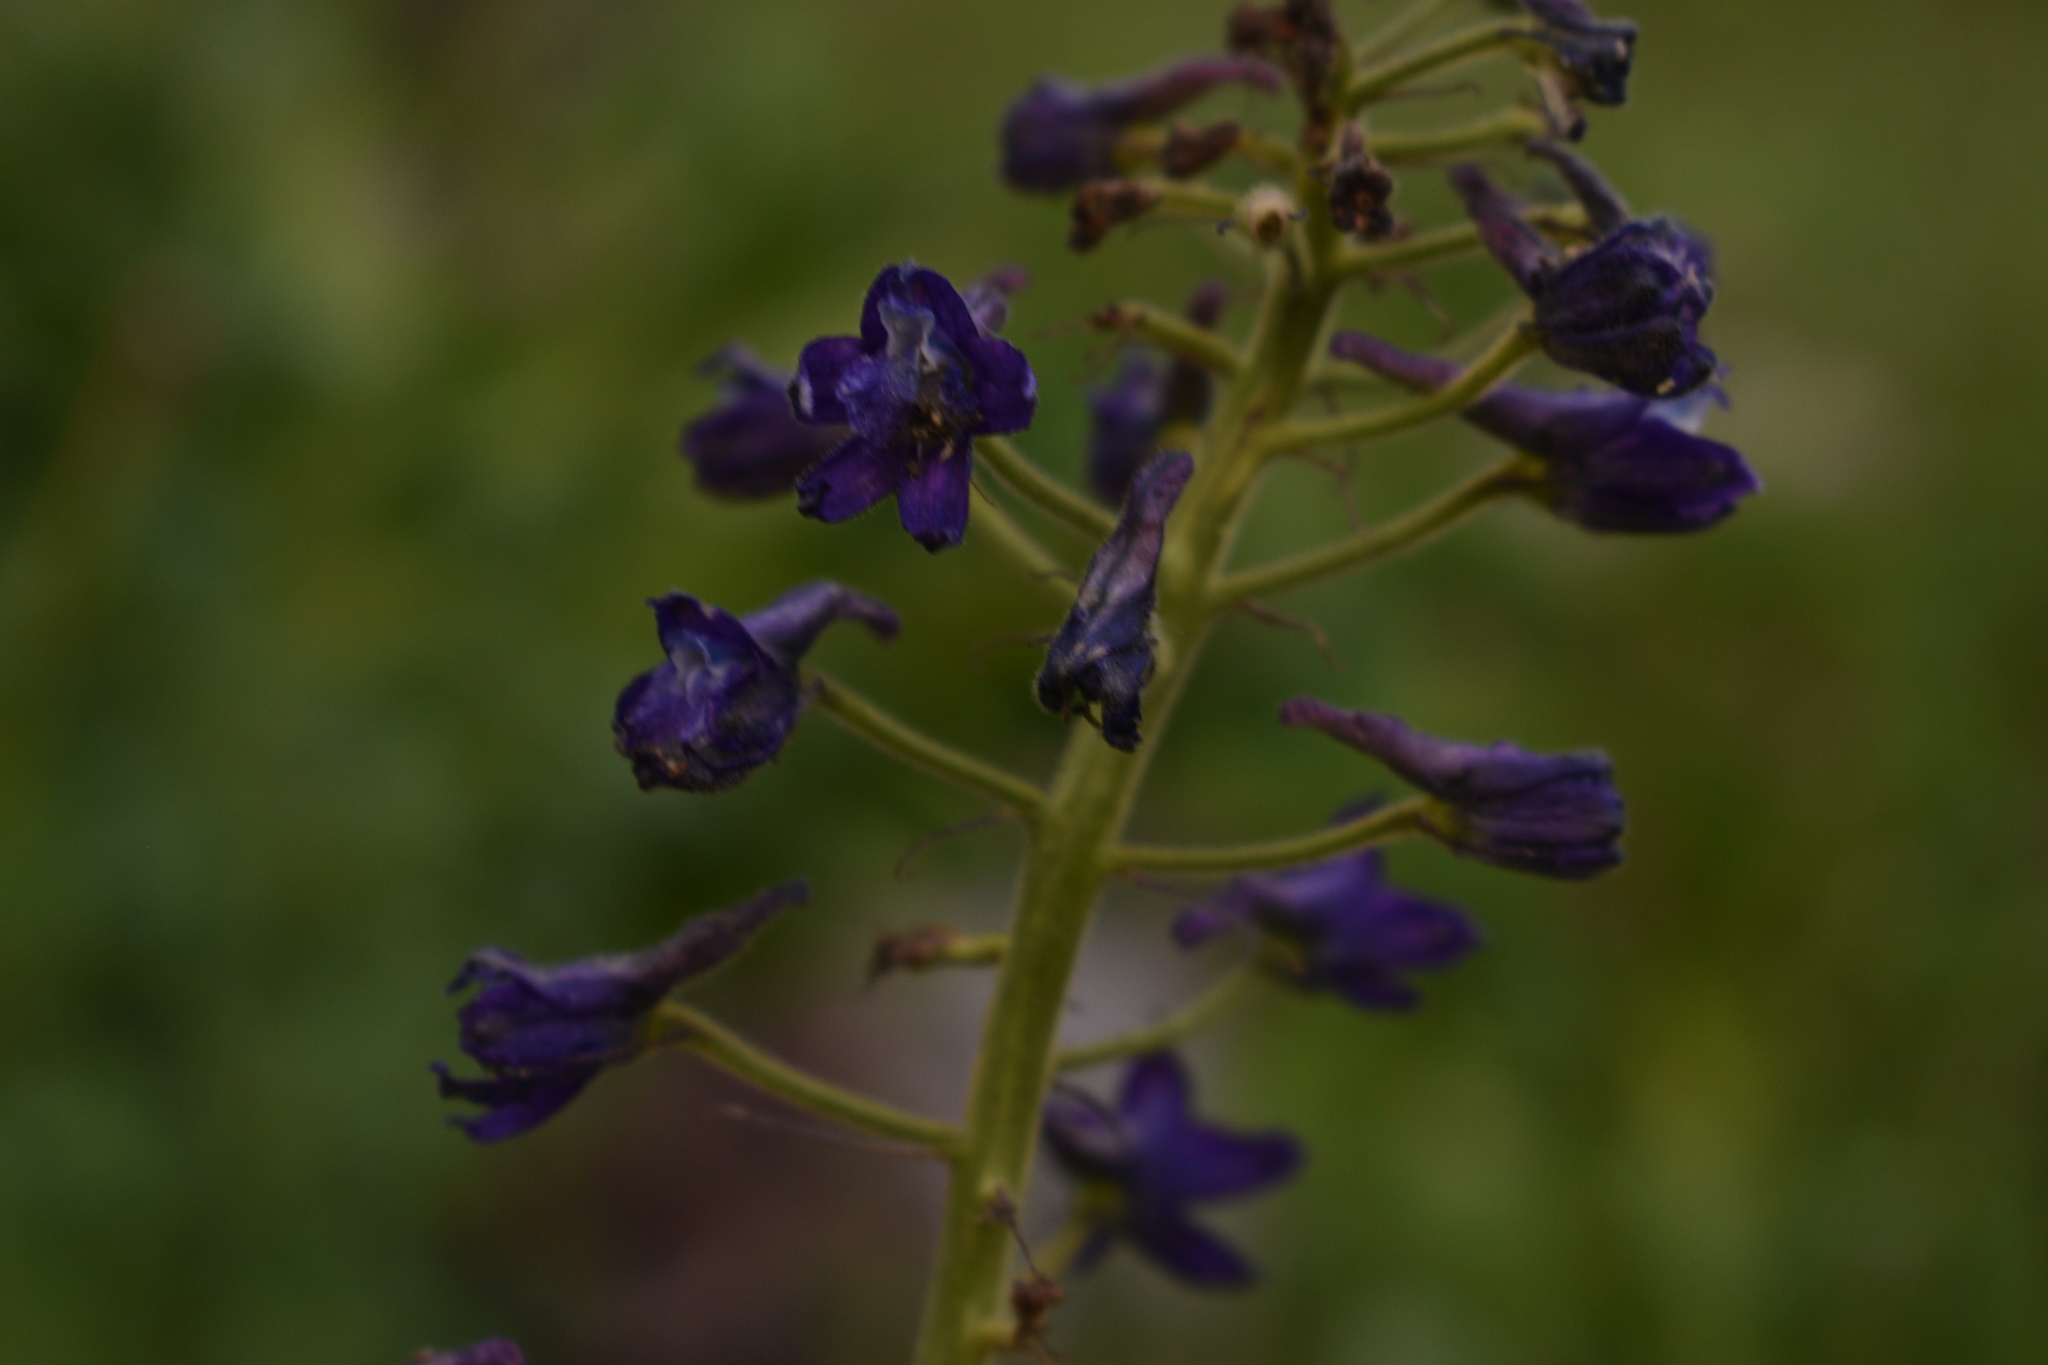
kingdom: Plantae
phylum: Tracheophyta
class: Magnoliopsida
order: Ranunculales
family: Ranunculaceae
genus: Delphinium
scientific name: Delphinium barbeyi
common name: Subalpine larkspur
